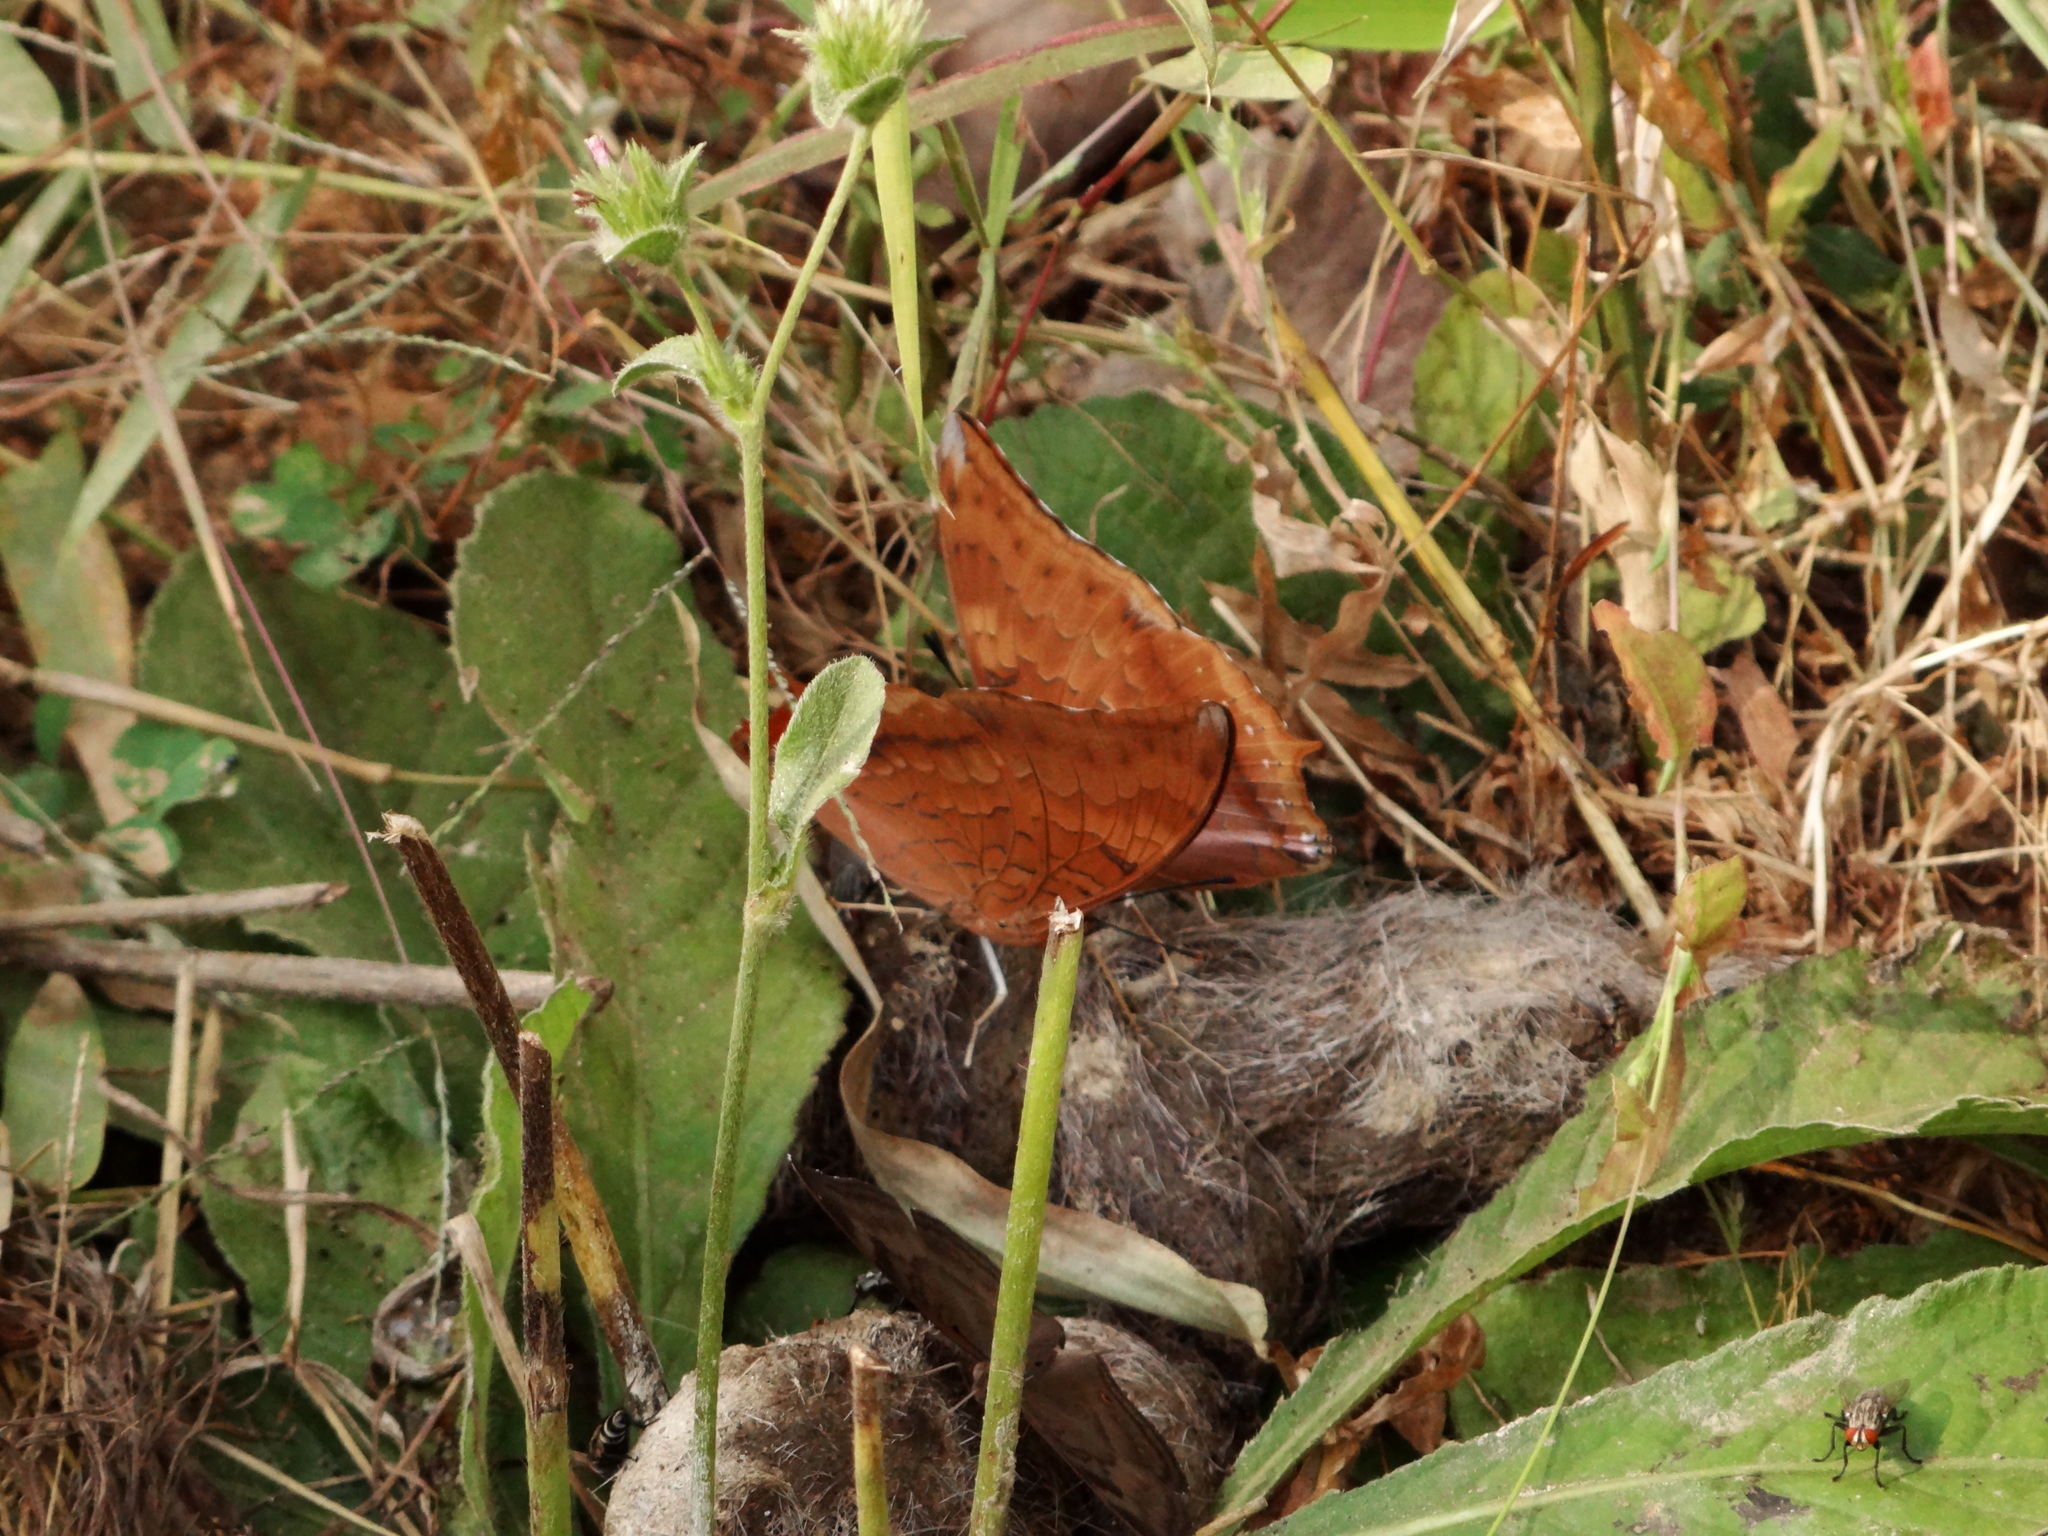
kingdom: Animalia
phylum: Arthropoda
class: Insecta
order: Lepidoptera
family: Nymphalidae
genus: Charaxes
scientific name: Charaxes psaphon
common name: Plain tawny rajah
